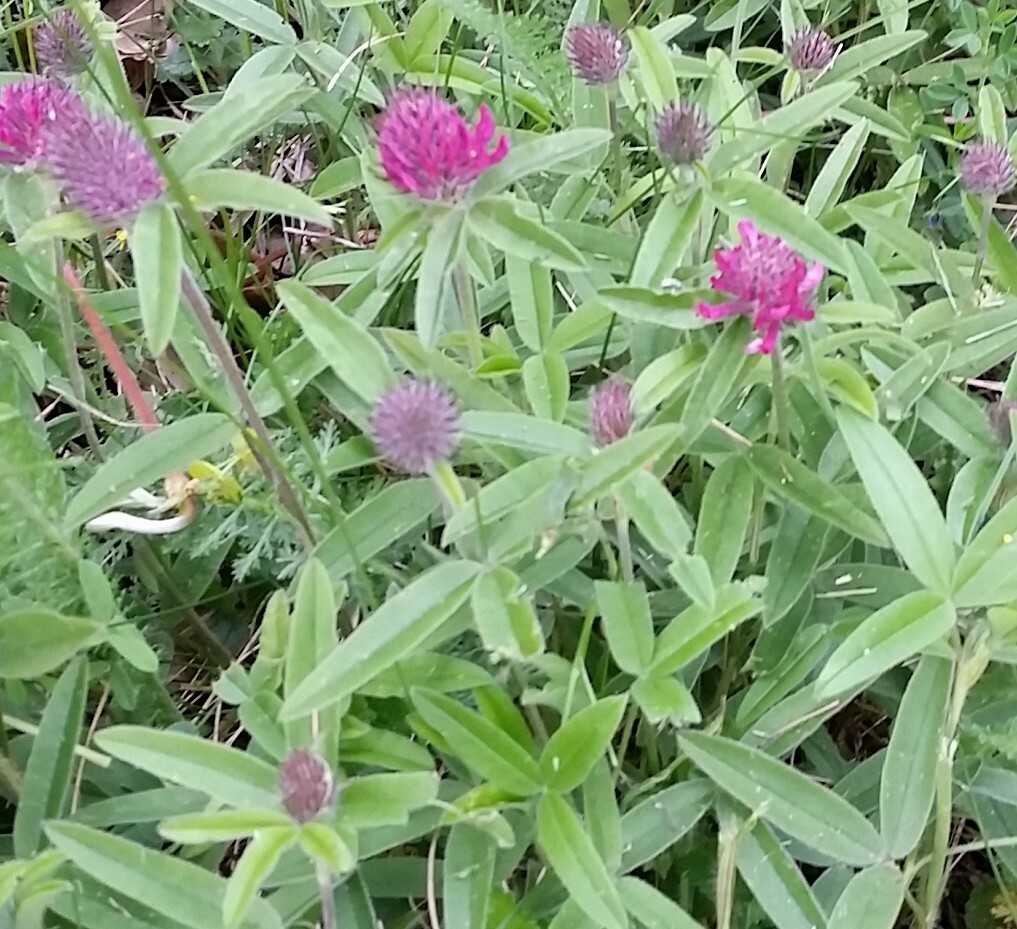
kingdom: Plantae
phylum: Tracheophyta
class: Magnoliopsida
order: Fabales
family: Fabaceae
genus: Trifolium
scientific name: Trifolium alpestre
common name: Owl-head clover
